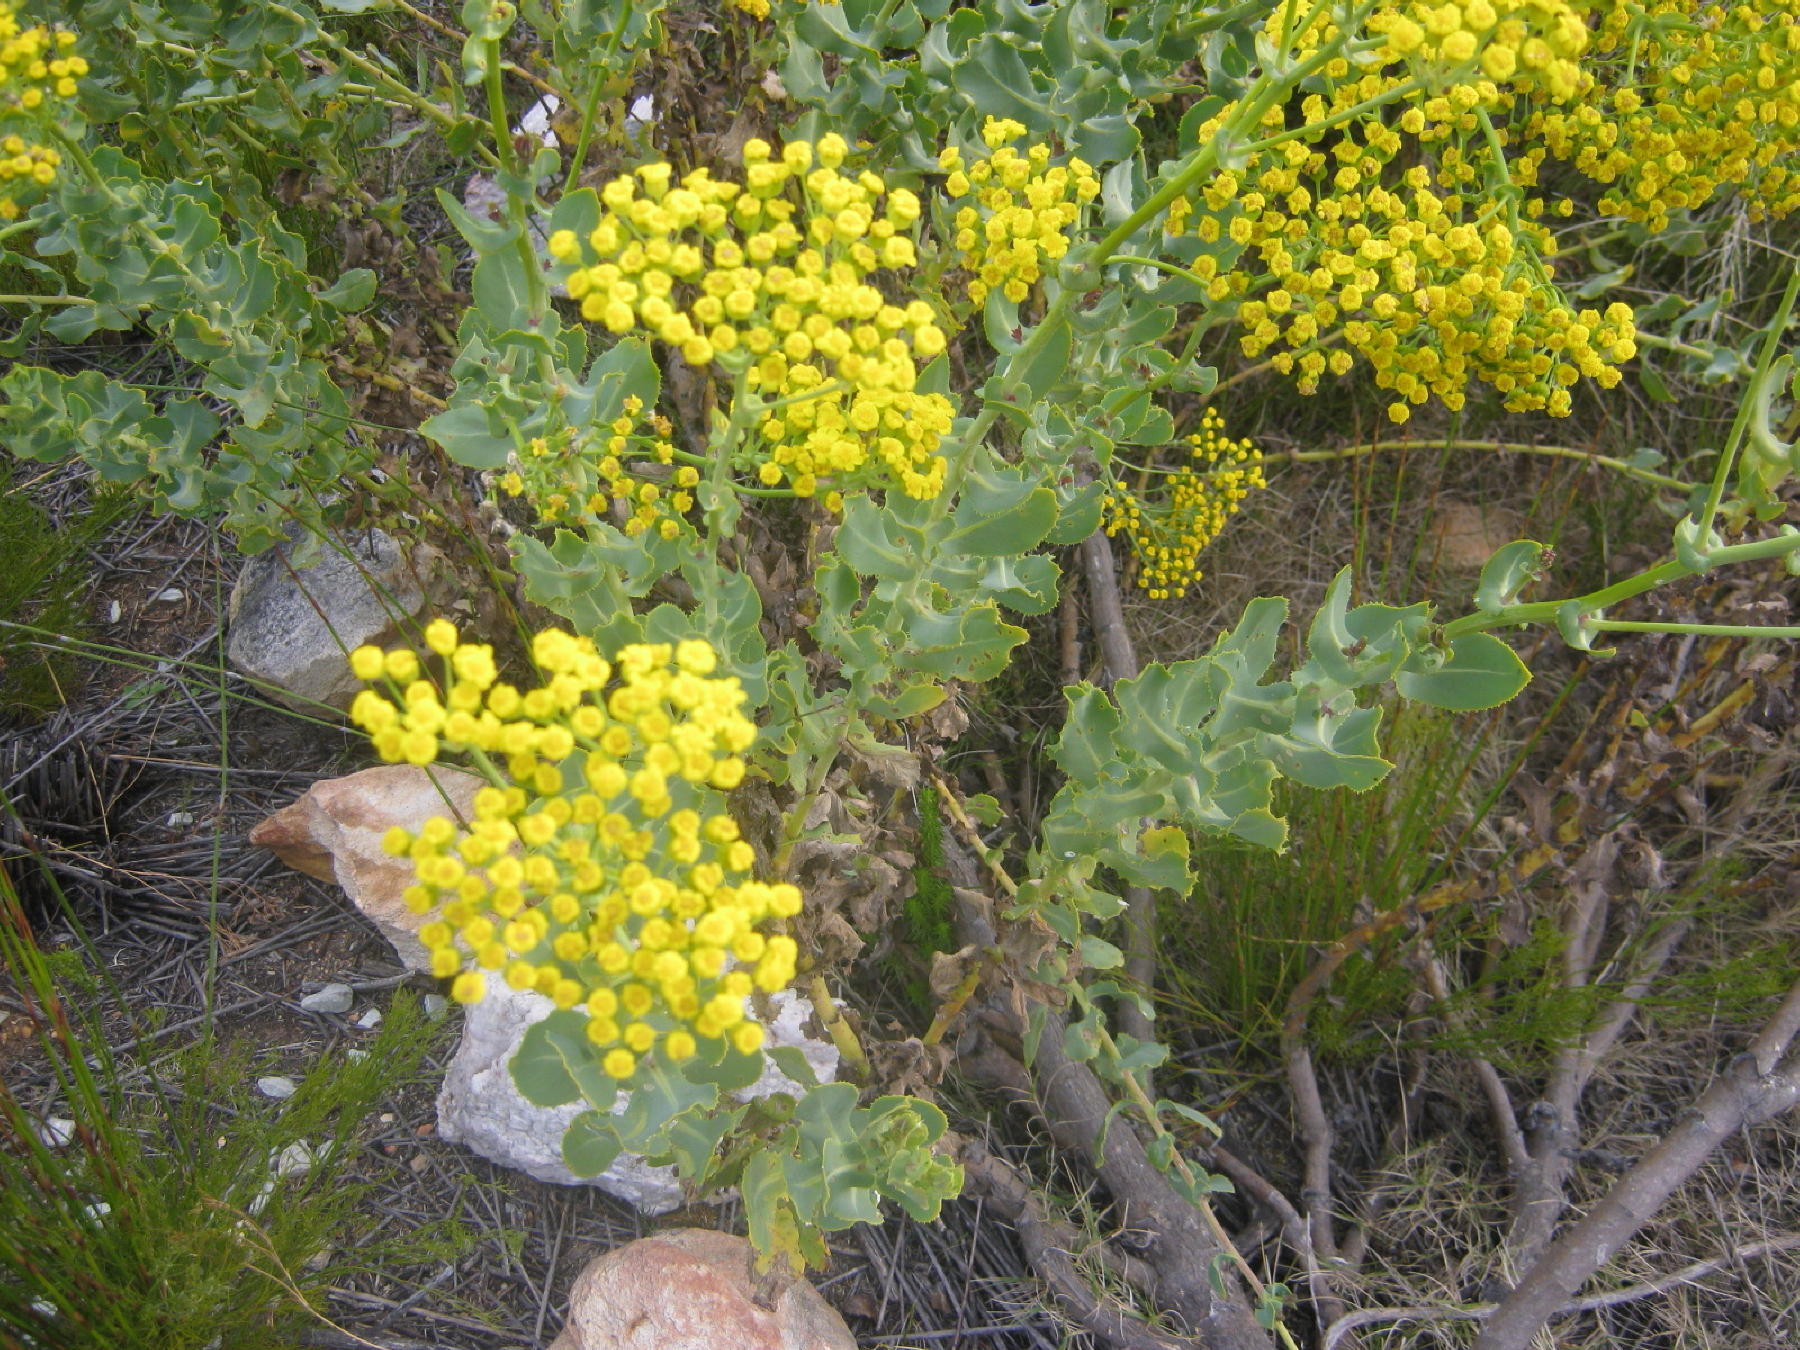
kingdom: Plantae
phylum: Tracheophyta
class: Magnoliopsida
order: Asterales
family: Asteraceae
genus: Othonna
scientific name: Othonna parviflora
